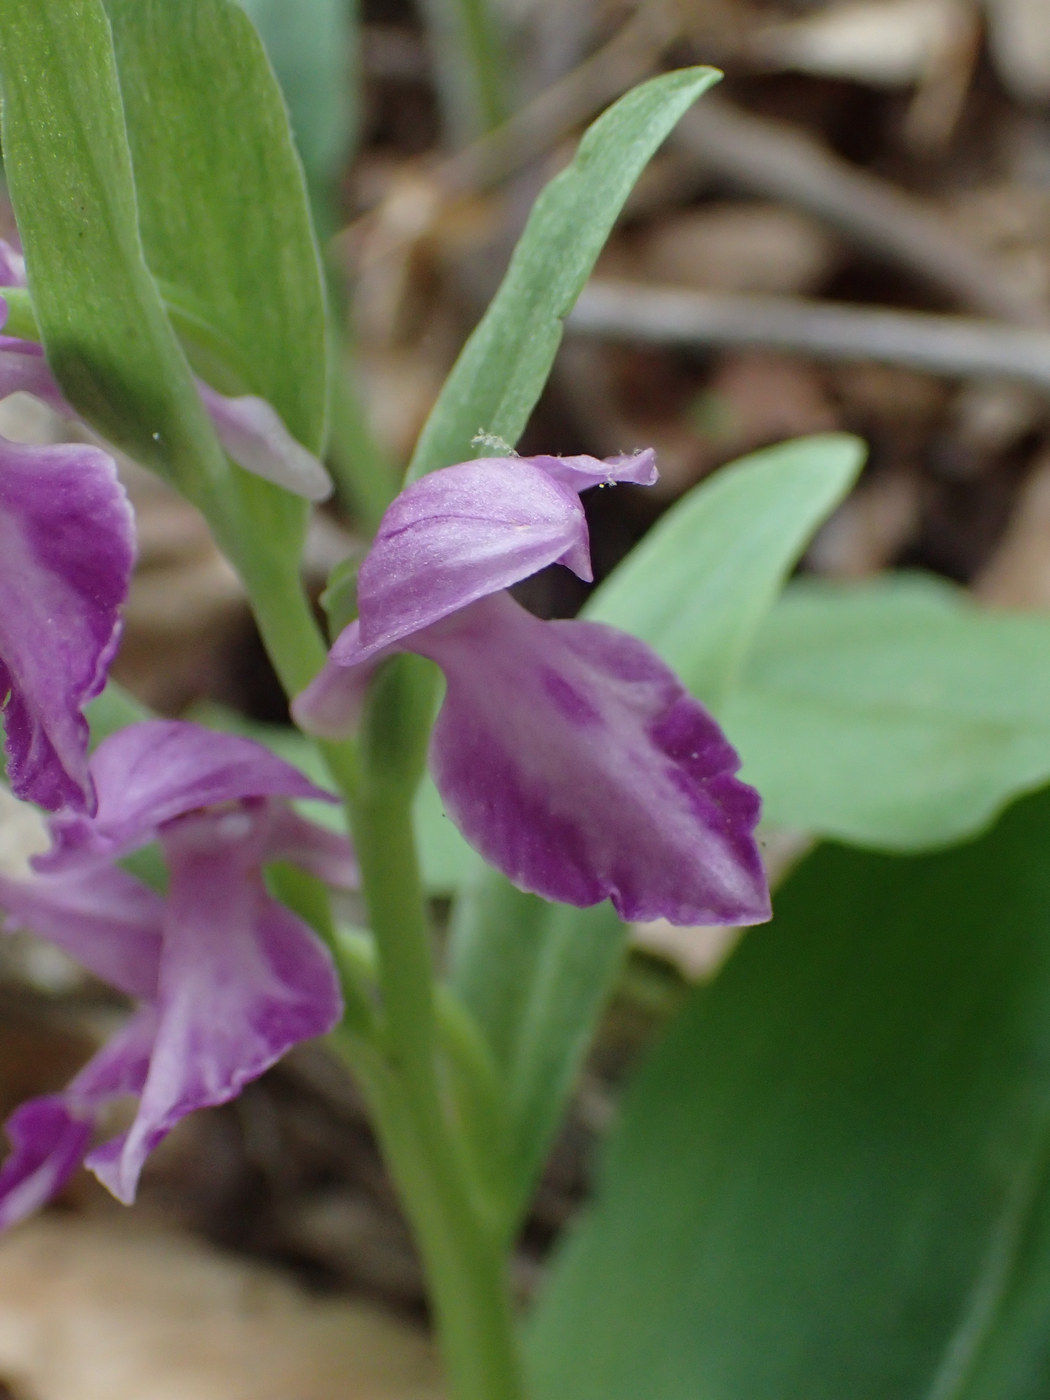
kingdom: Plantae
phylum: Tracheophyta
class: Liliopsida
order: Asparagales
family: Orchidaceae
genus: Galearis
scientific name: Galearis spectabilis
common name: Purple-hooded orchis
